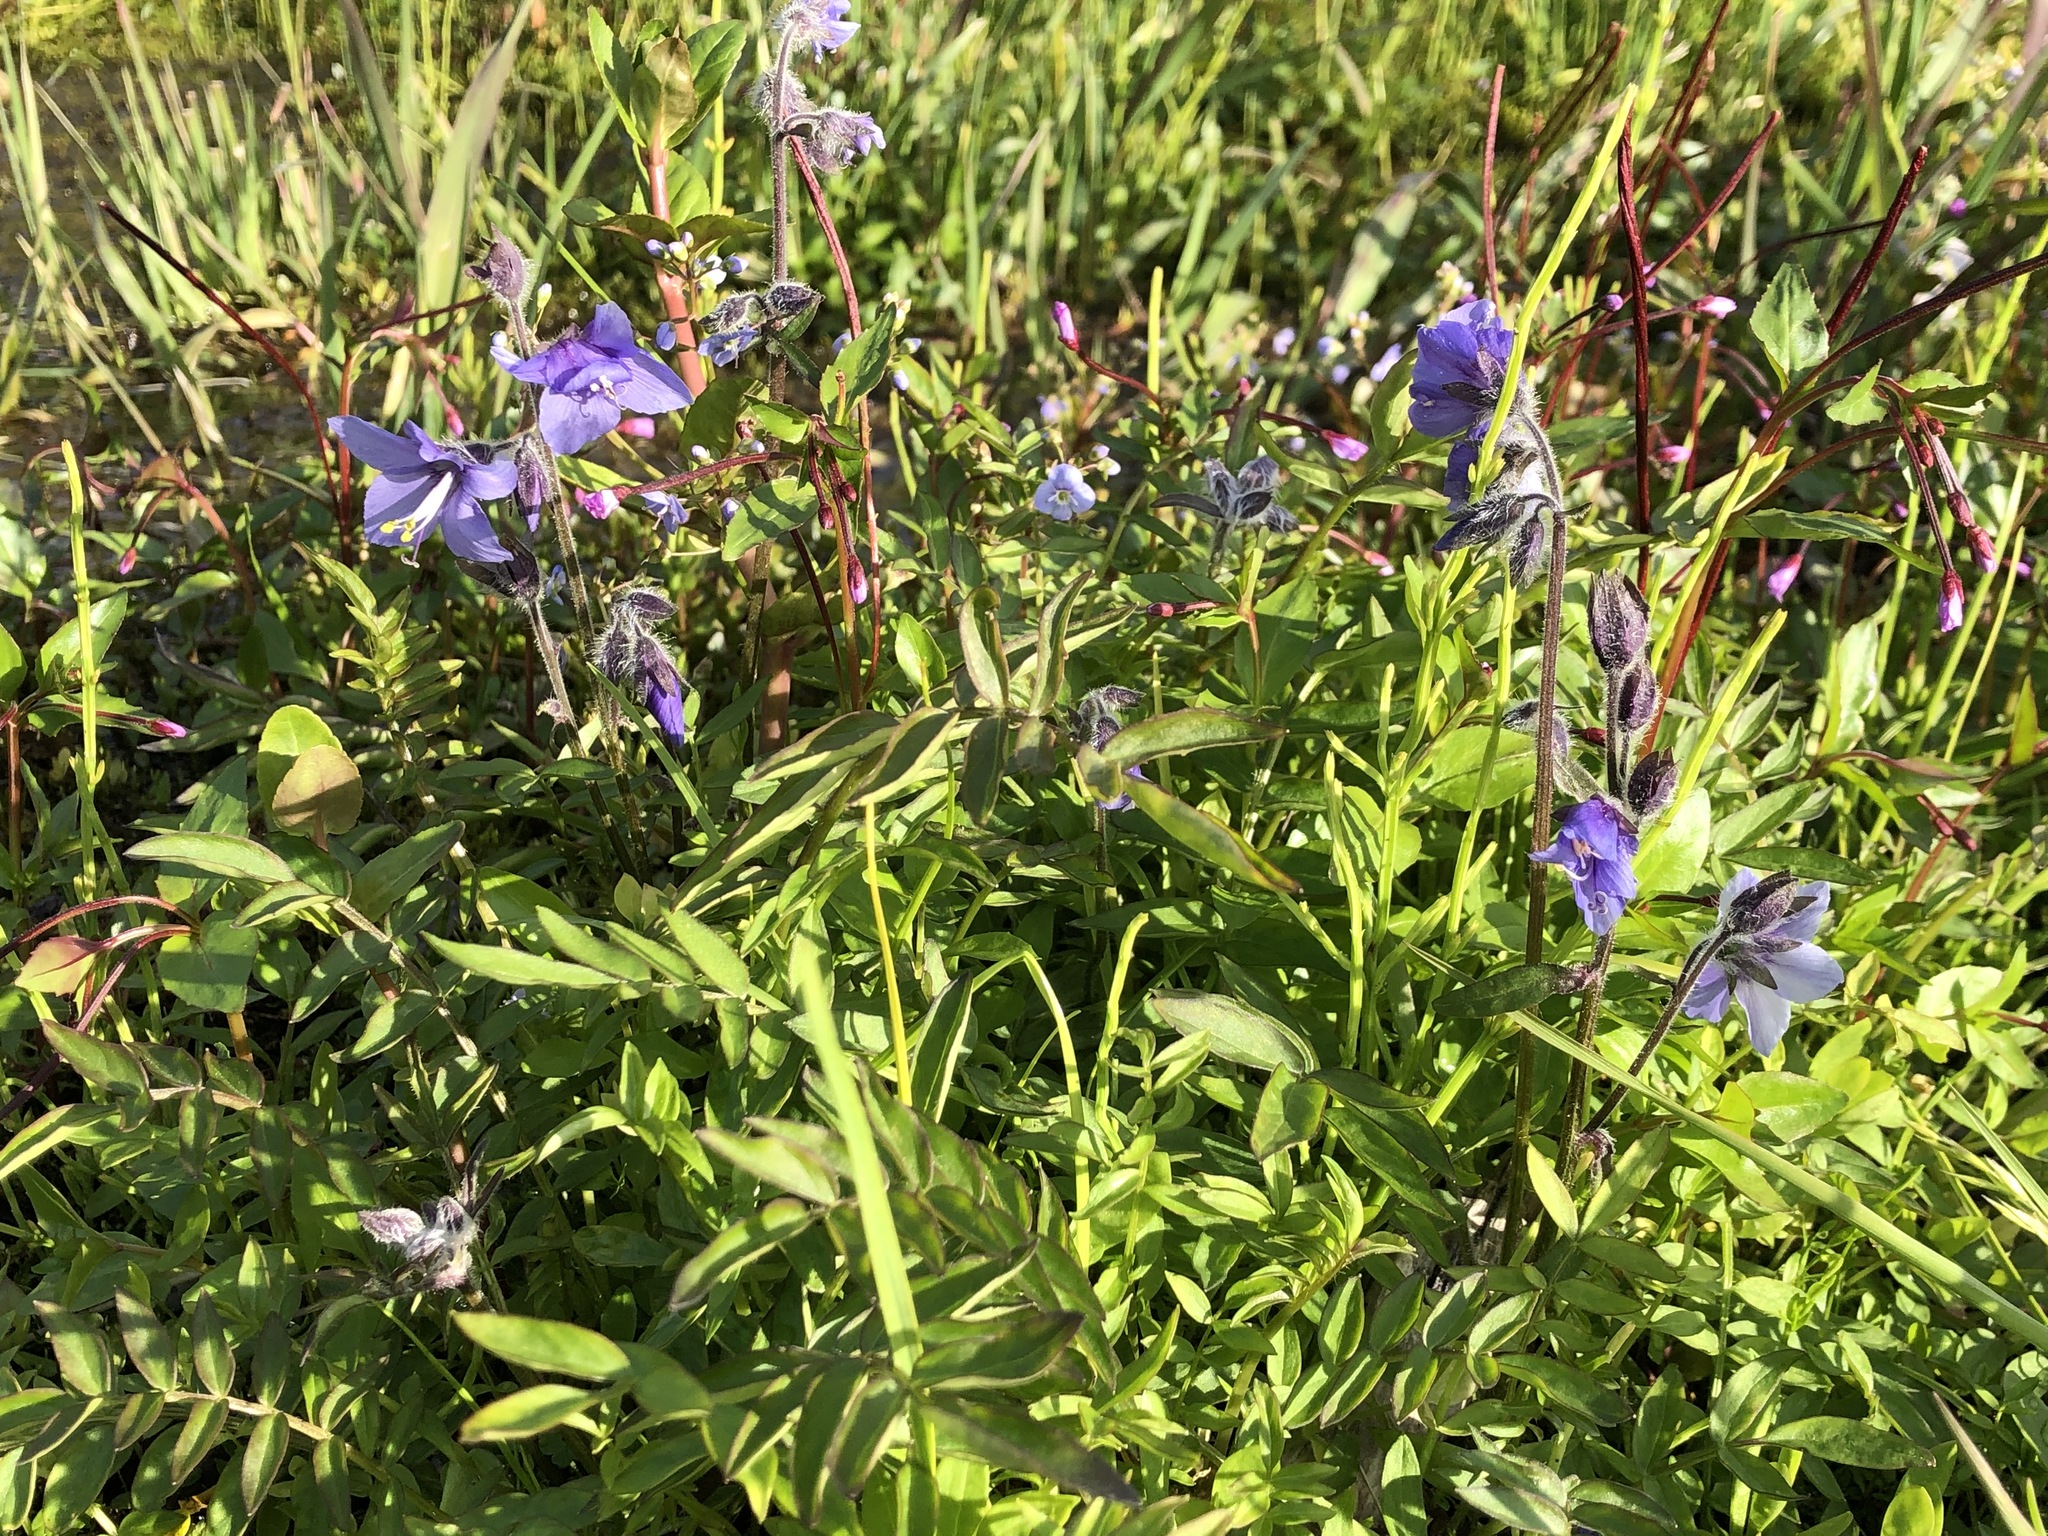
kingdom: Plantae
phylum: Tracheophyta
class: Magnoliopsida
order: Ericales
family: Polemoniaceae
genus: Polemonium
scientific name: Polemonium acutiflorum
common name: Tall jacob's-ladder
